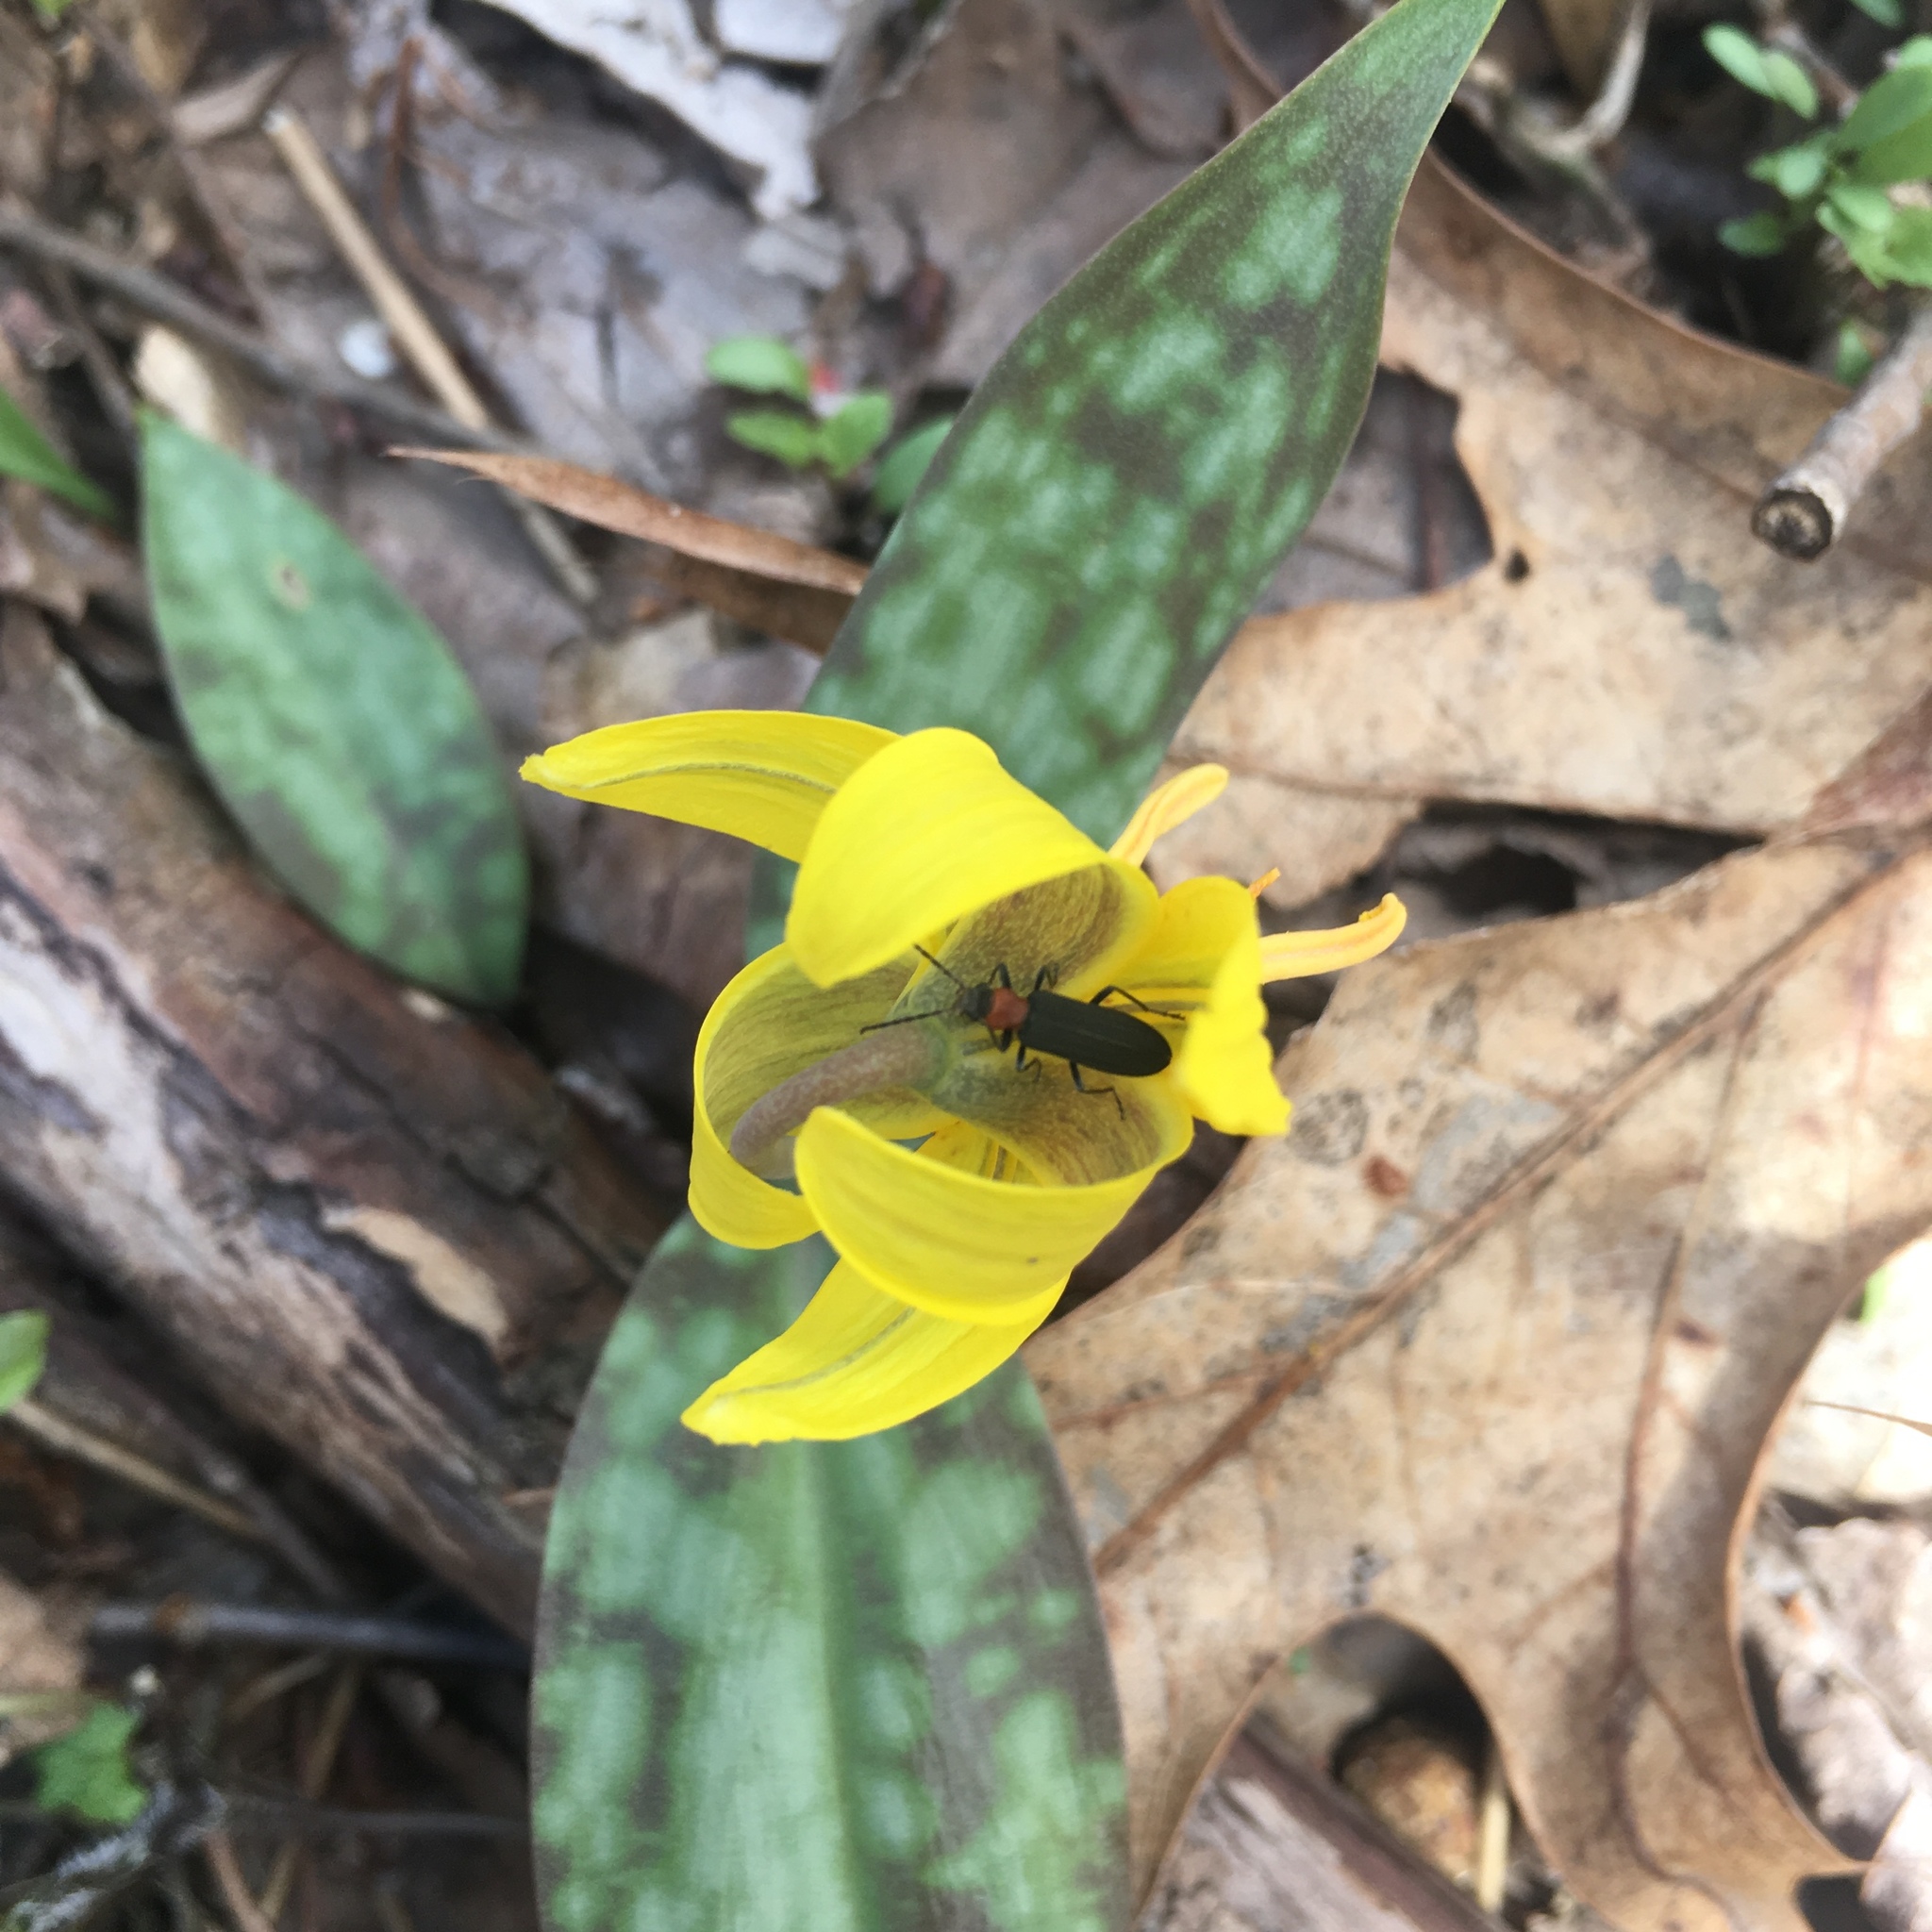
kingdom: Plantae
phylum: Tracheophyta
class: Liliopsida
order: Liliales
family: Liliaceae
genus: Erythronium
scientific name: Erythronium americanum
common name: Yellow adder's-tongue
